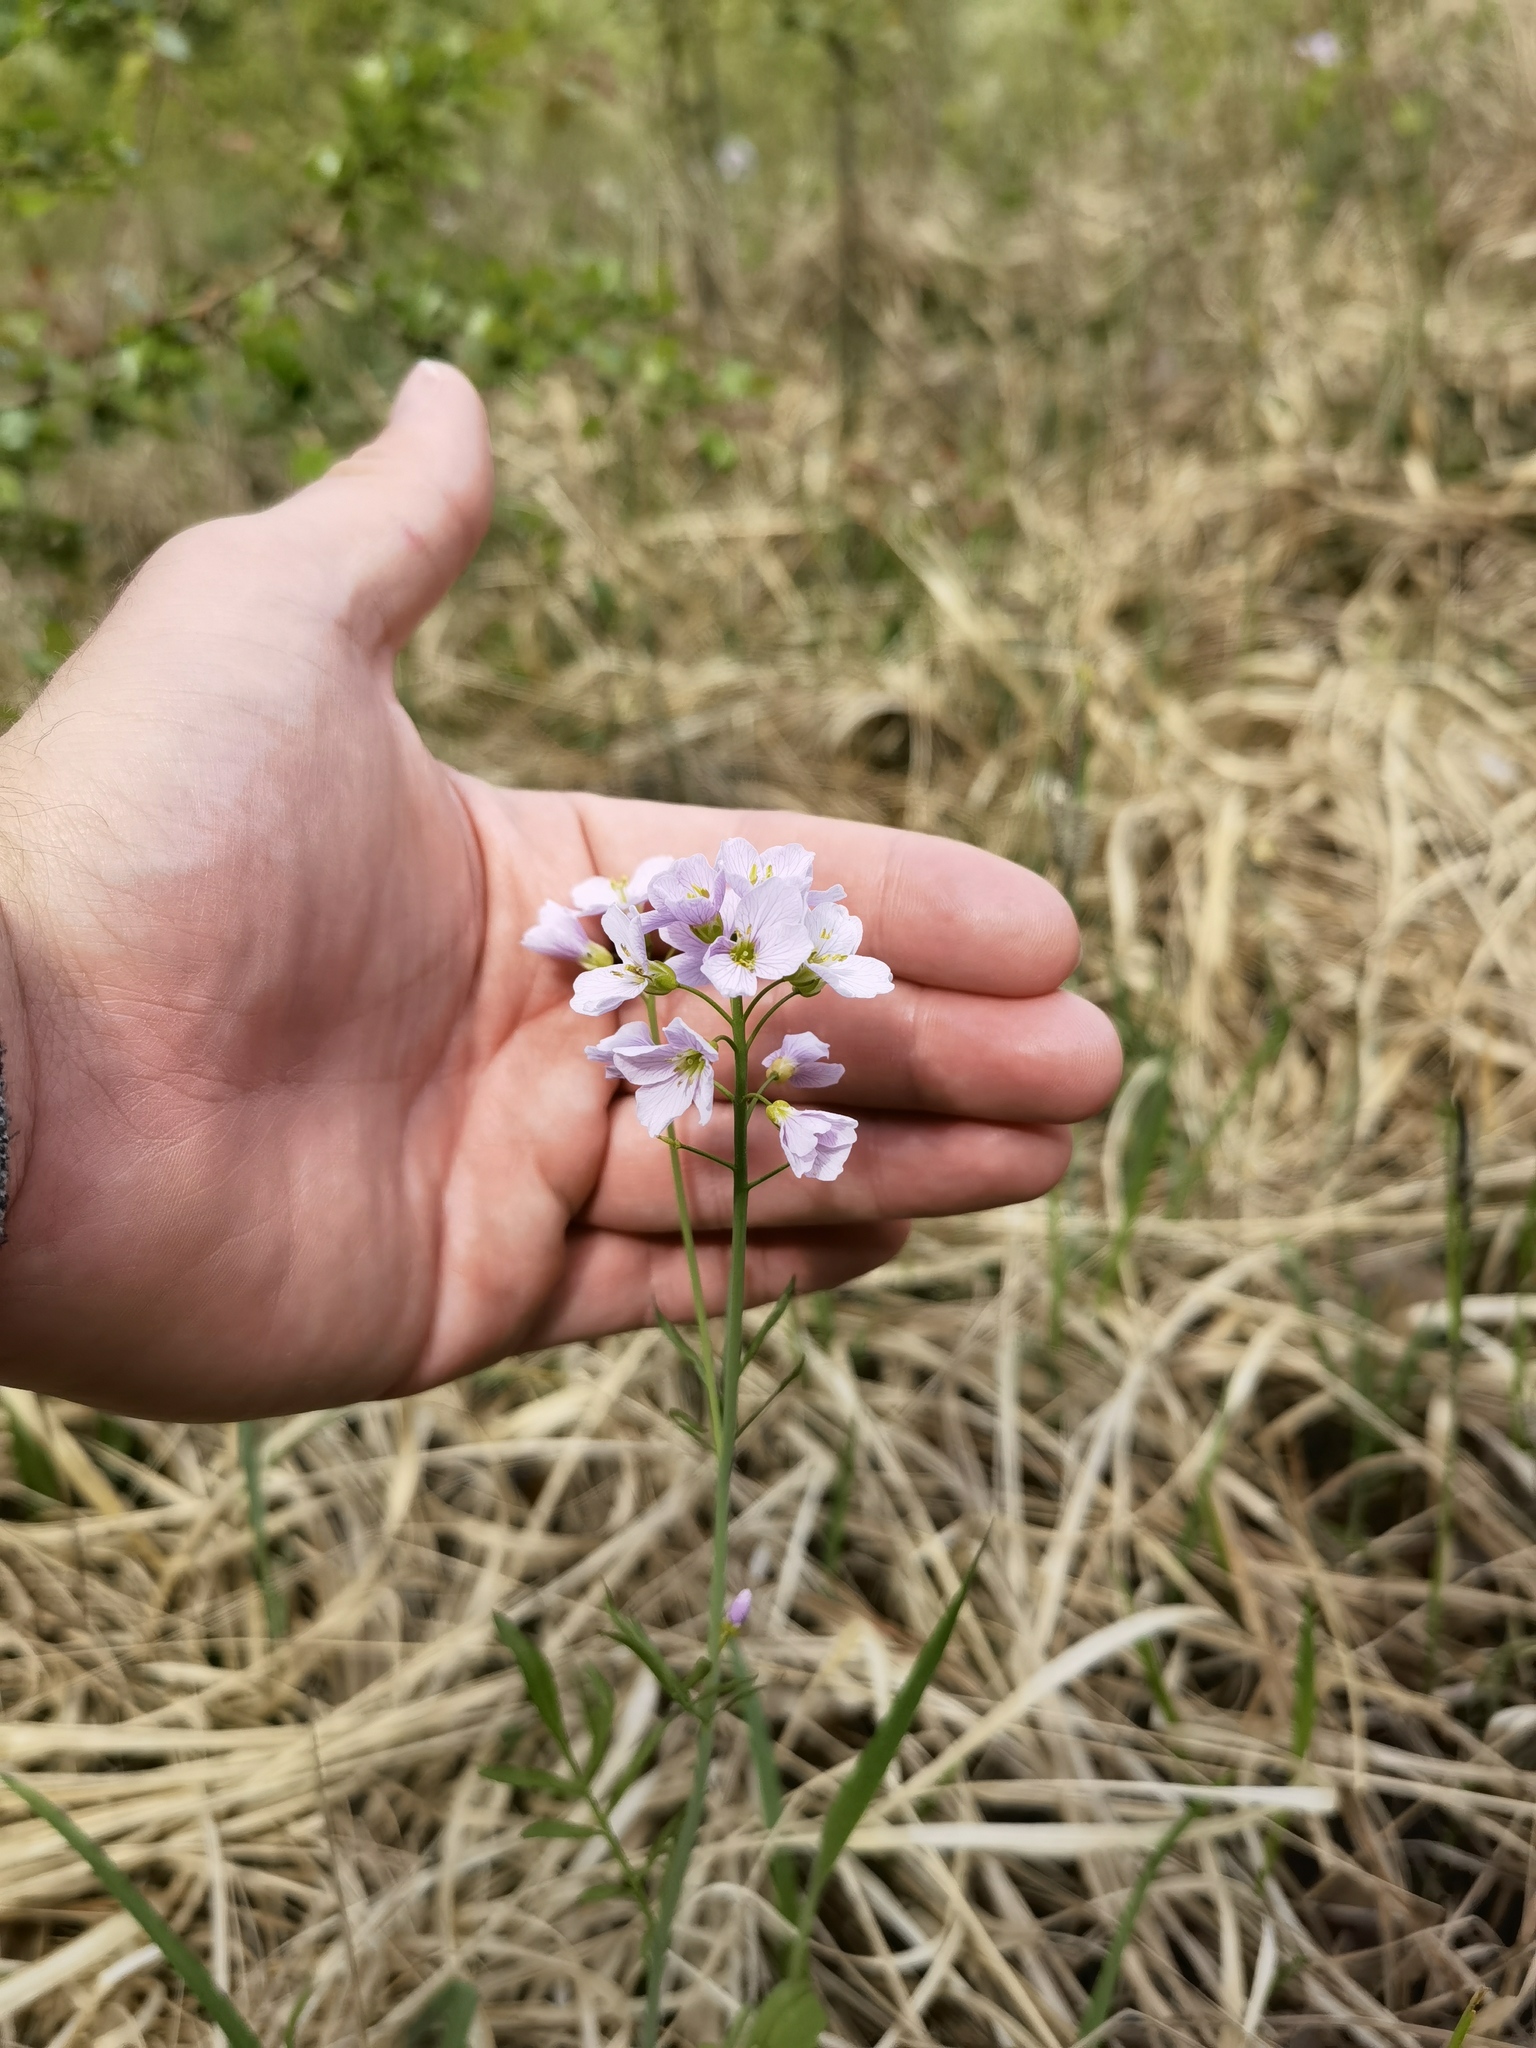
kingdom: Plantae
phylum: Tracheophyta
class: Magnoliopsida
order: Brassicales
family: Brassicaceae
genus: Cardamine
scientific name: Cardamine pratensis
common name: Cuckoo flower
